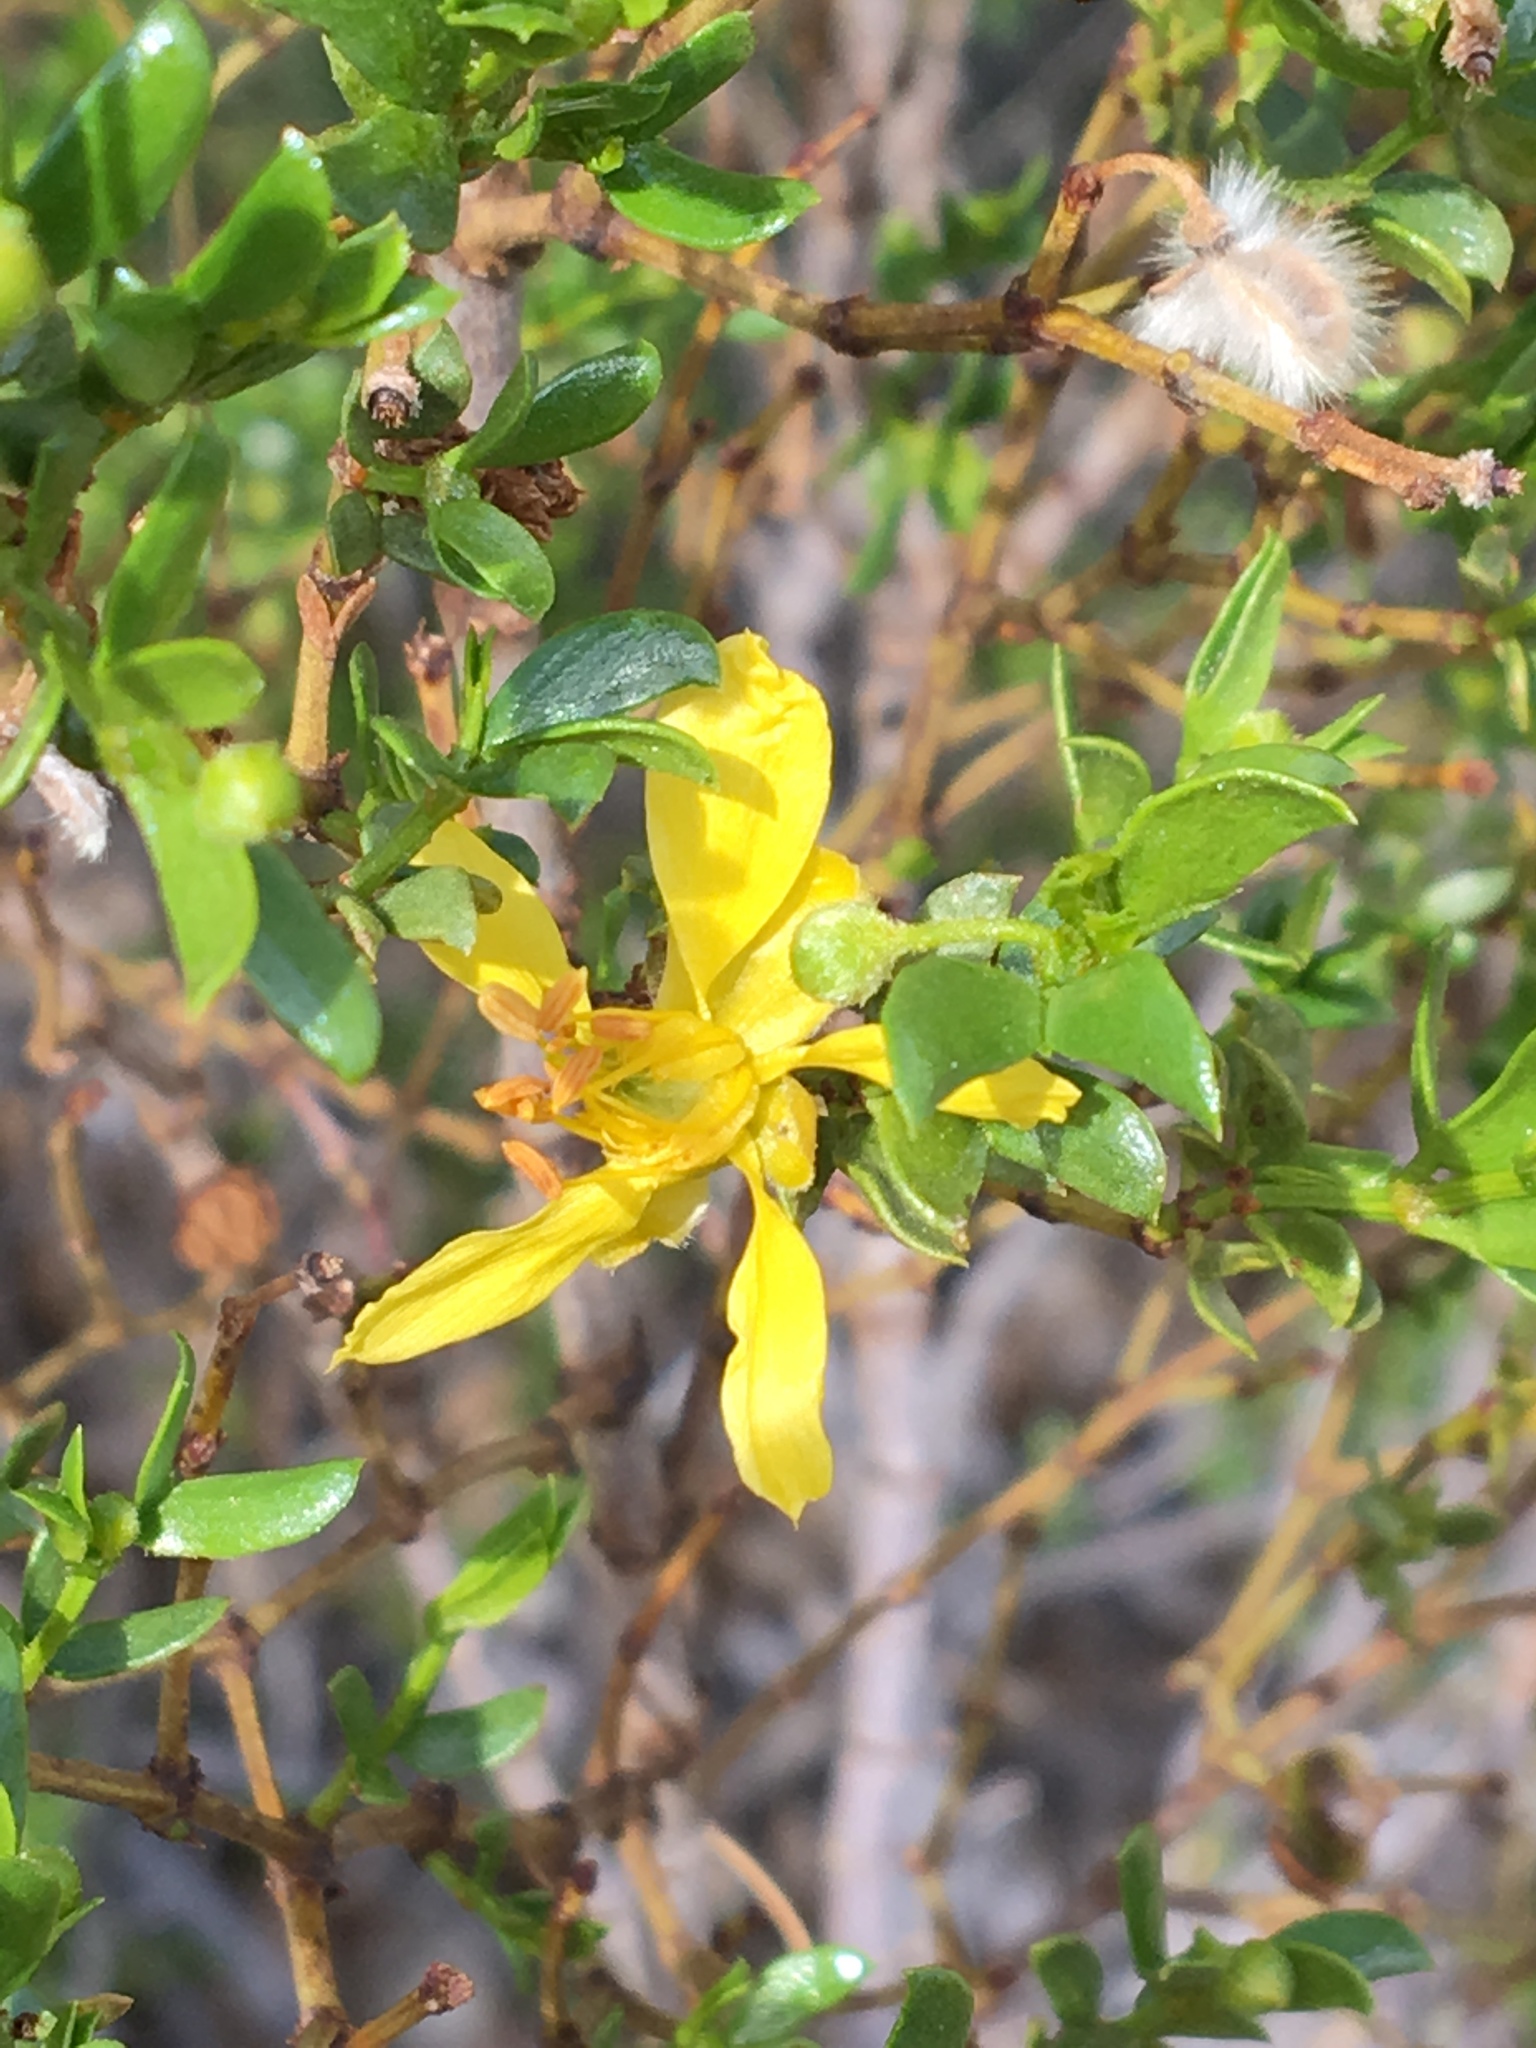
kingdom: Plantae
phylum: Tracheophyta
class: Magnoliopsida
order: Zygophyllales
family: Zygophyllaceae
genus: Larrea
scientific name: Larrea tridentata
